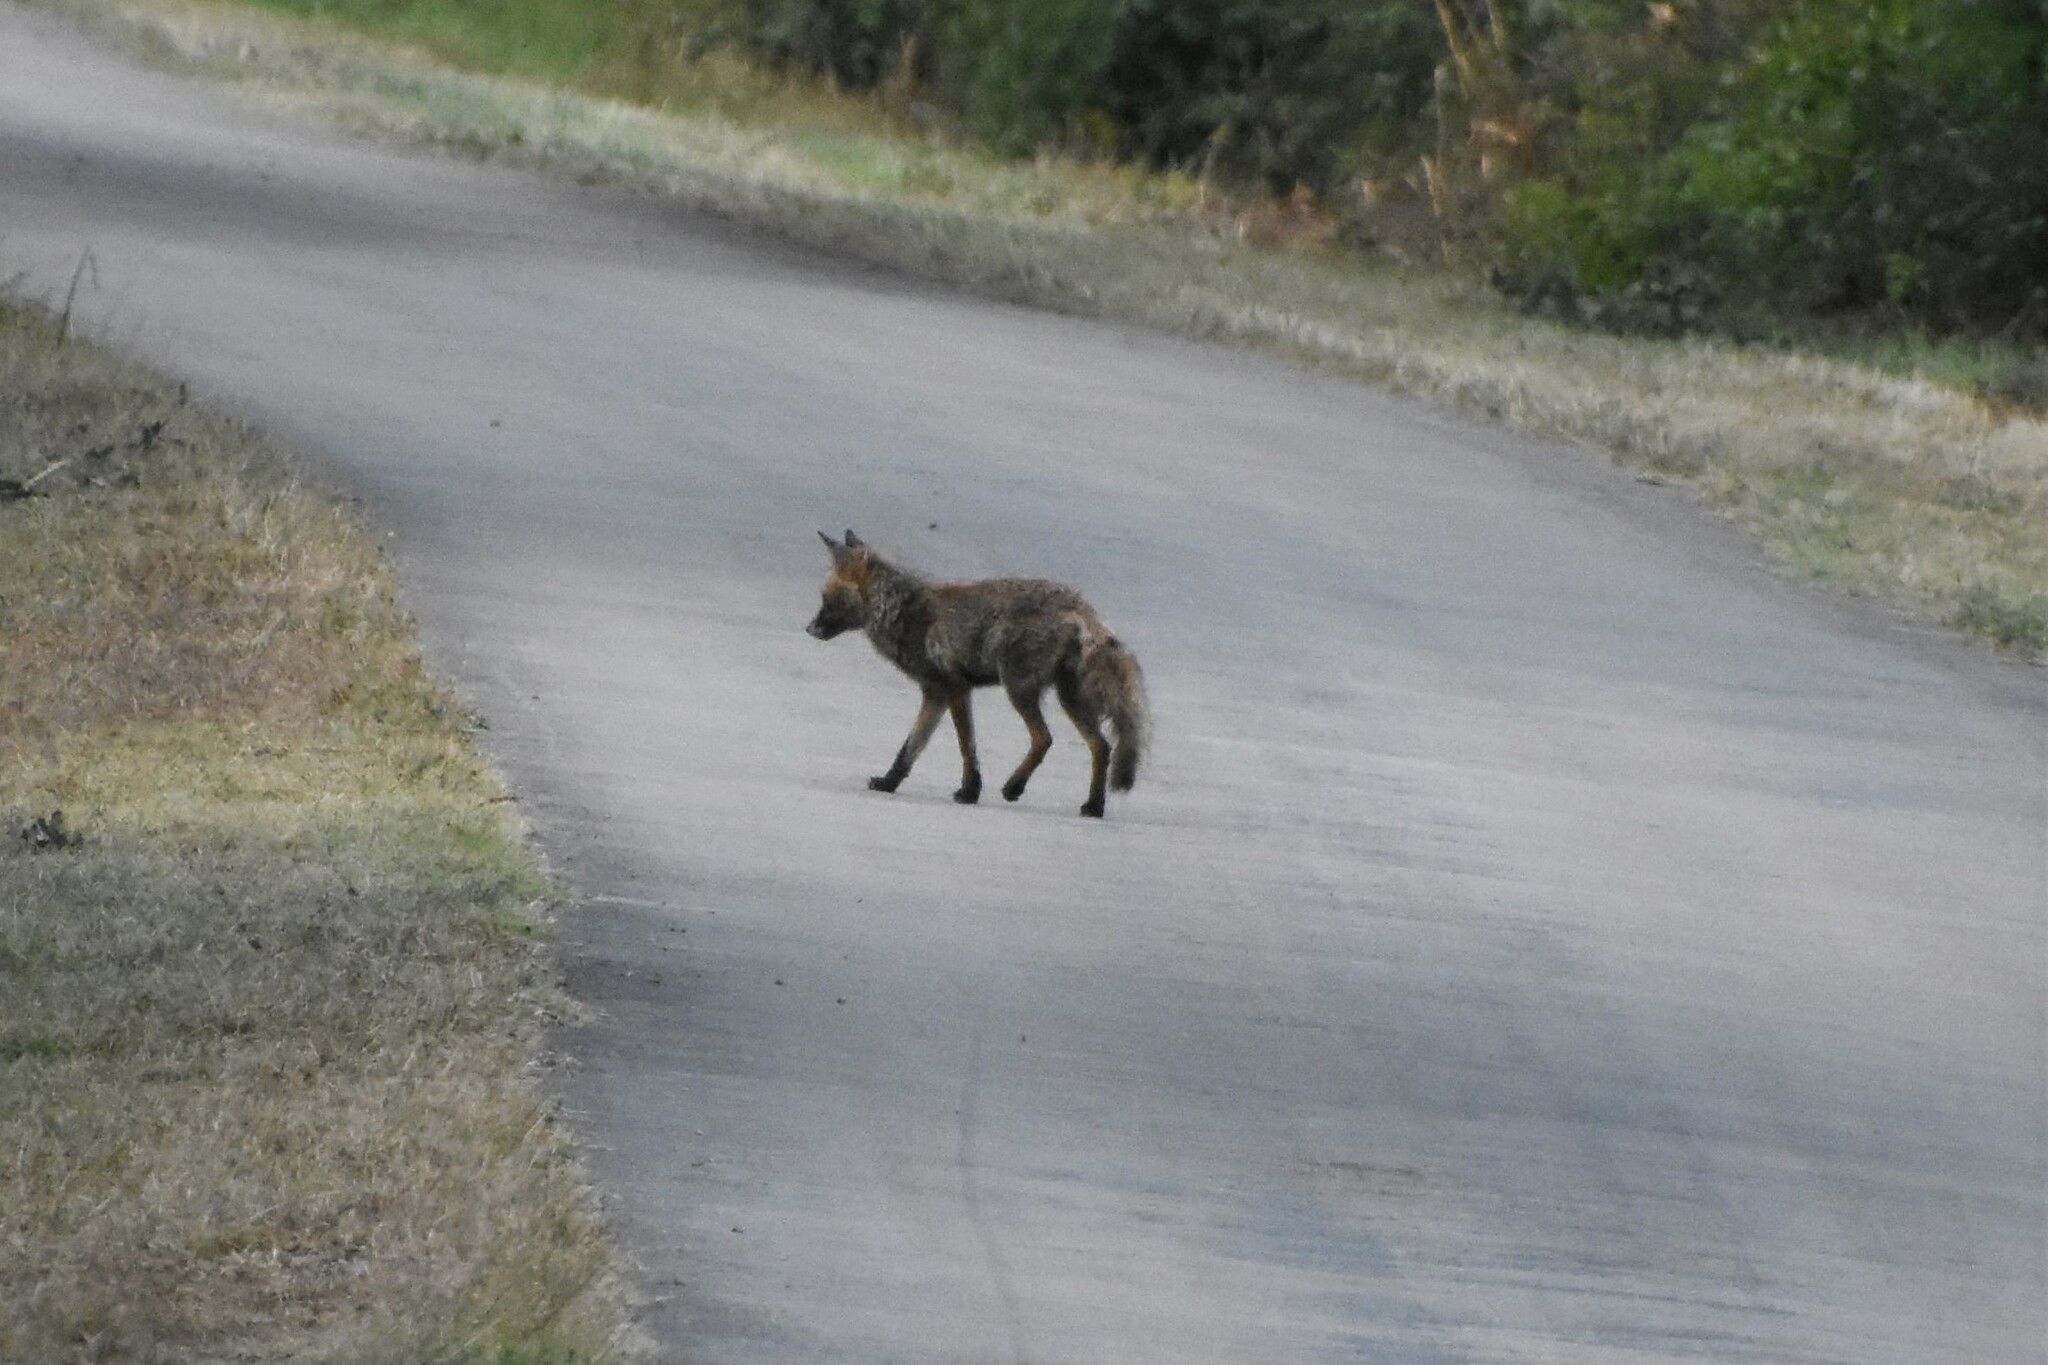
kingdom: Animalia
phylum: Chordata
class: Mammalia
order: Carnivora
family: Canidae
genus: Vulpes
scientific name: Vulpes vulpes
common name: Red fox
